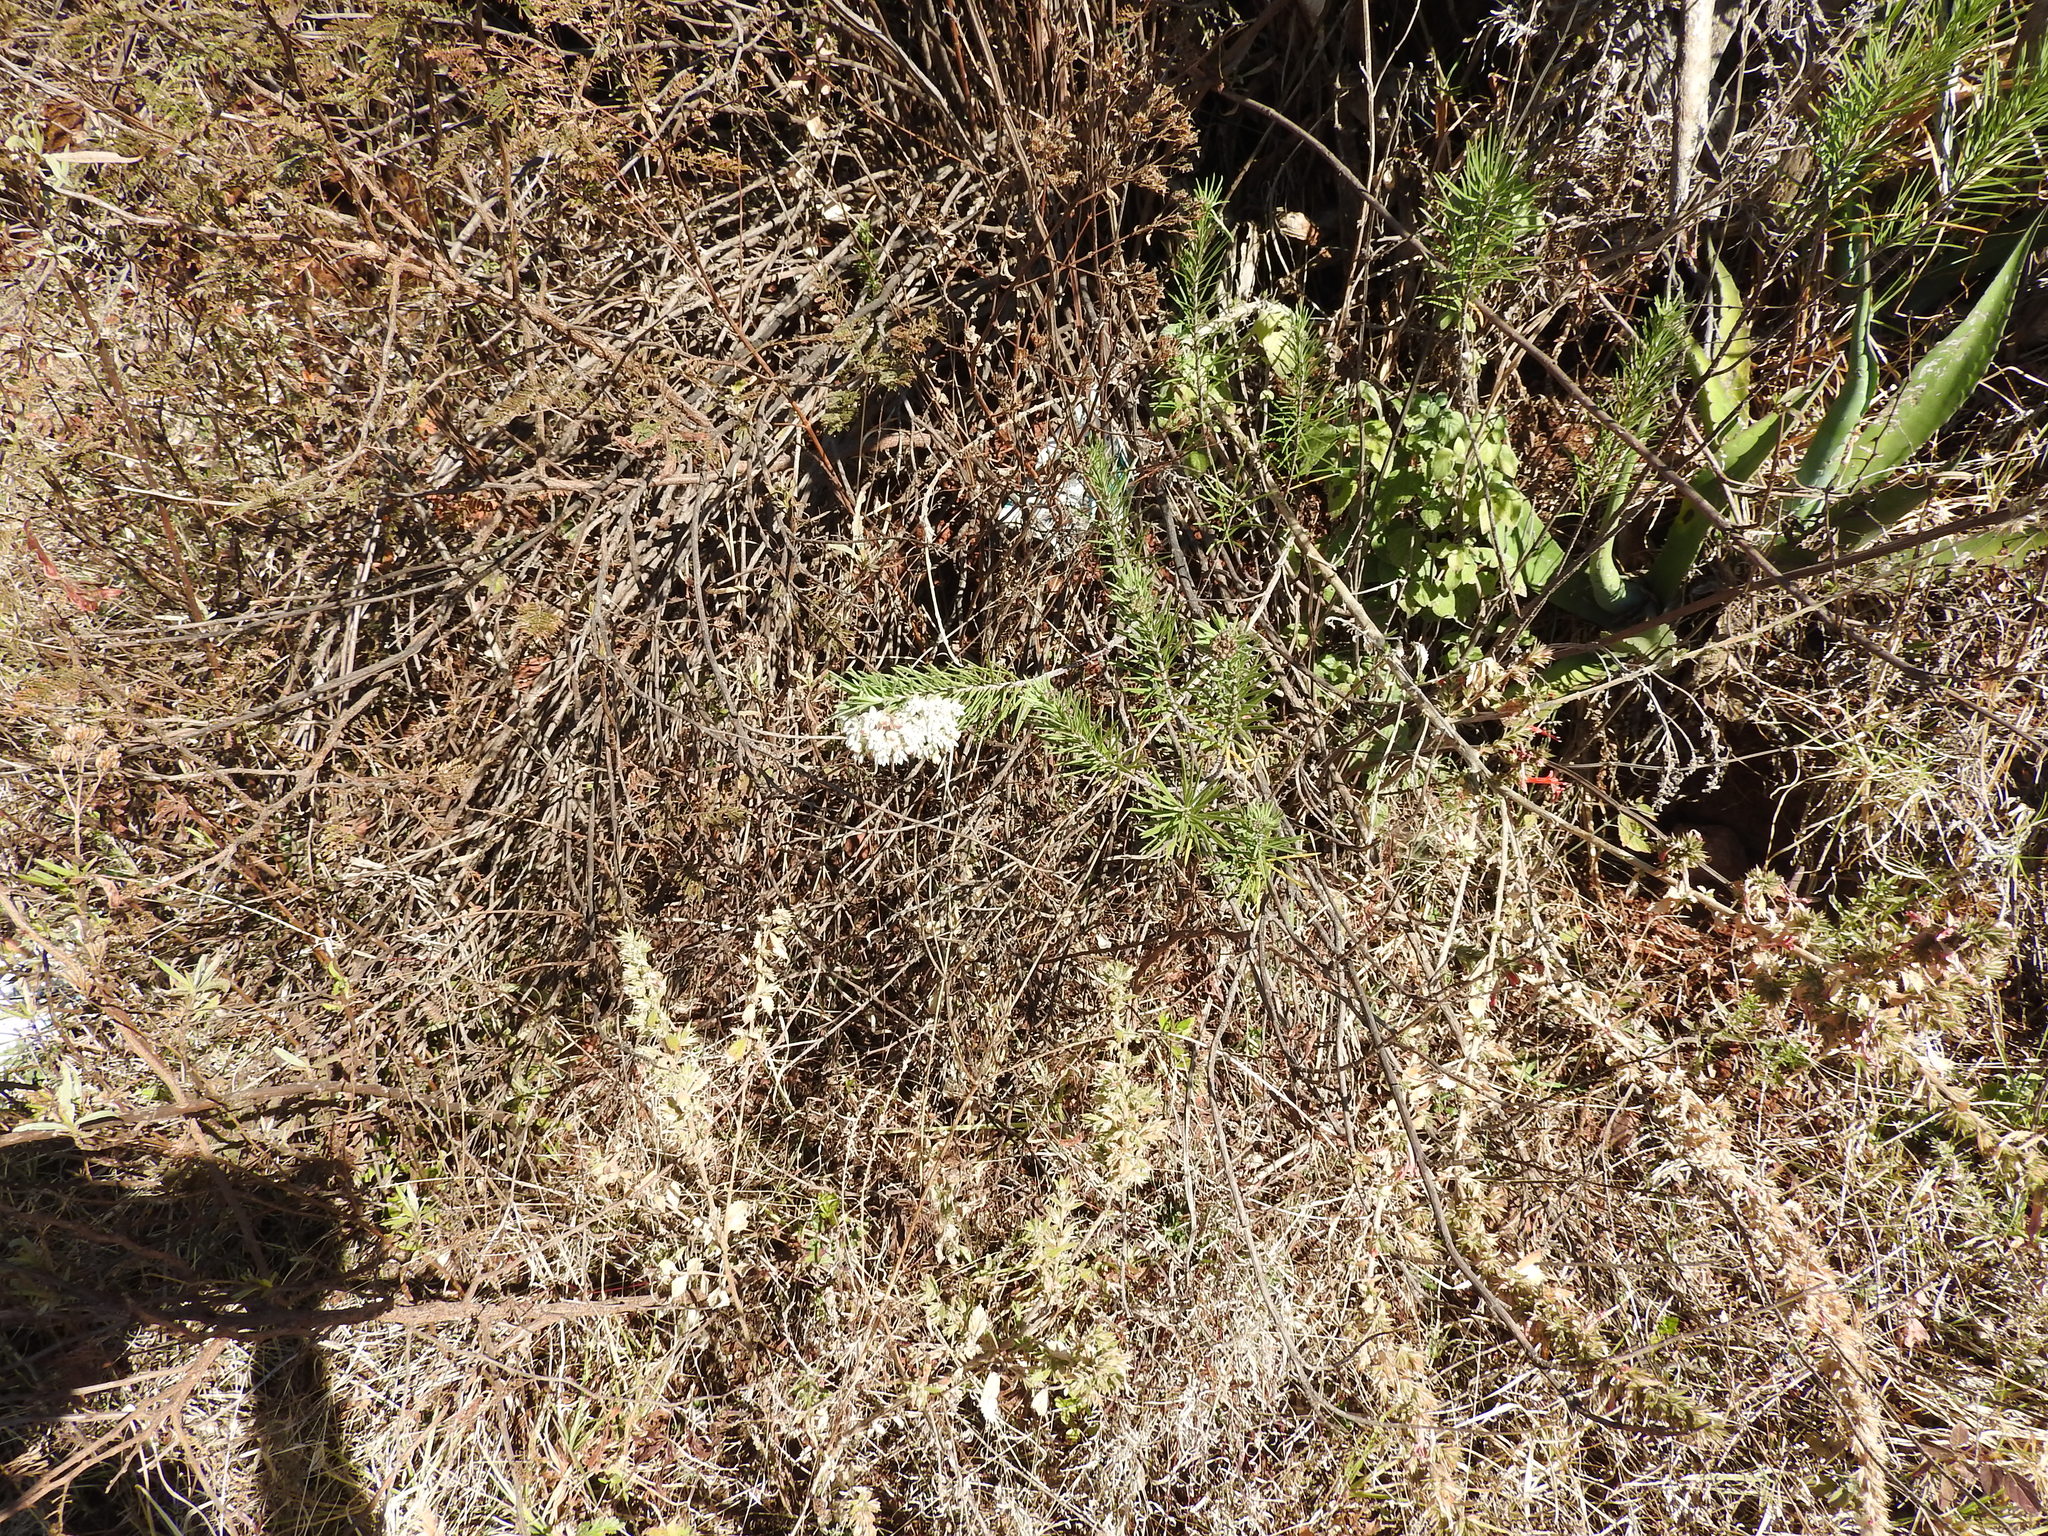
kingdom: Plantae
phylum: Tracheophyta
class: Magnoliopsida
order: Gentianales
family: Apocynaceae
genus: Asclepias
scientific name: Asclepias linaria
